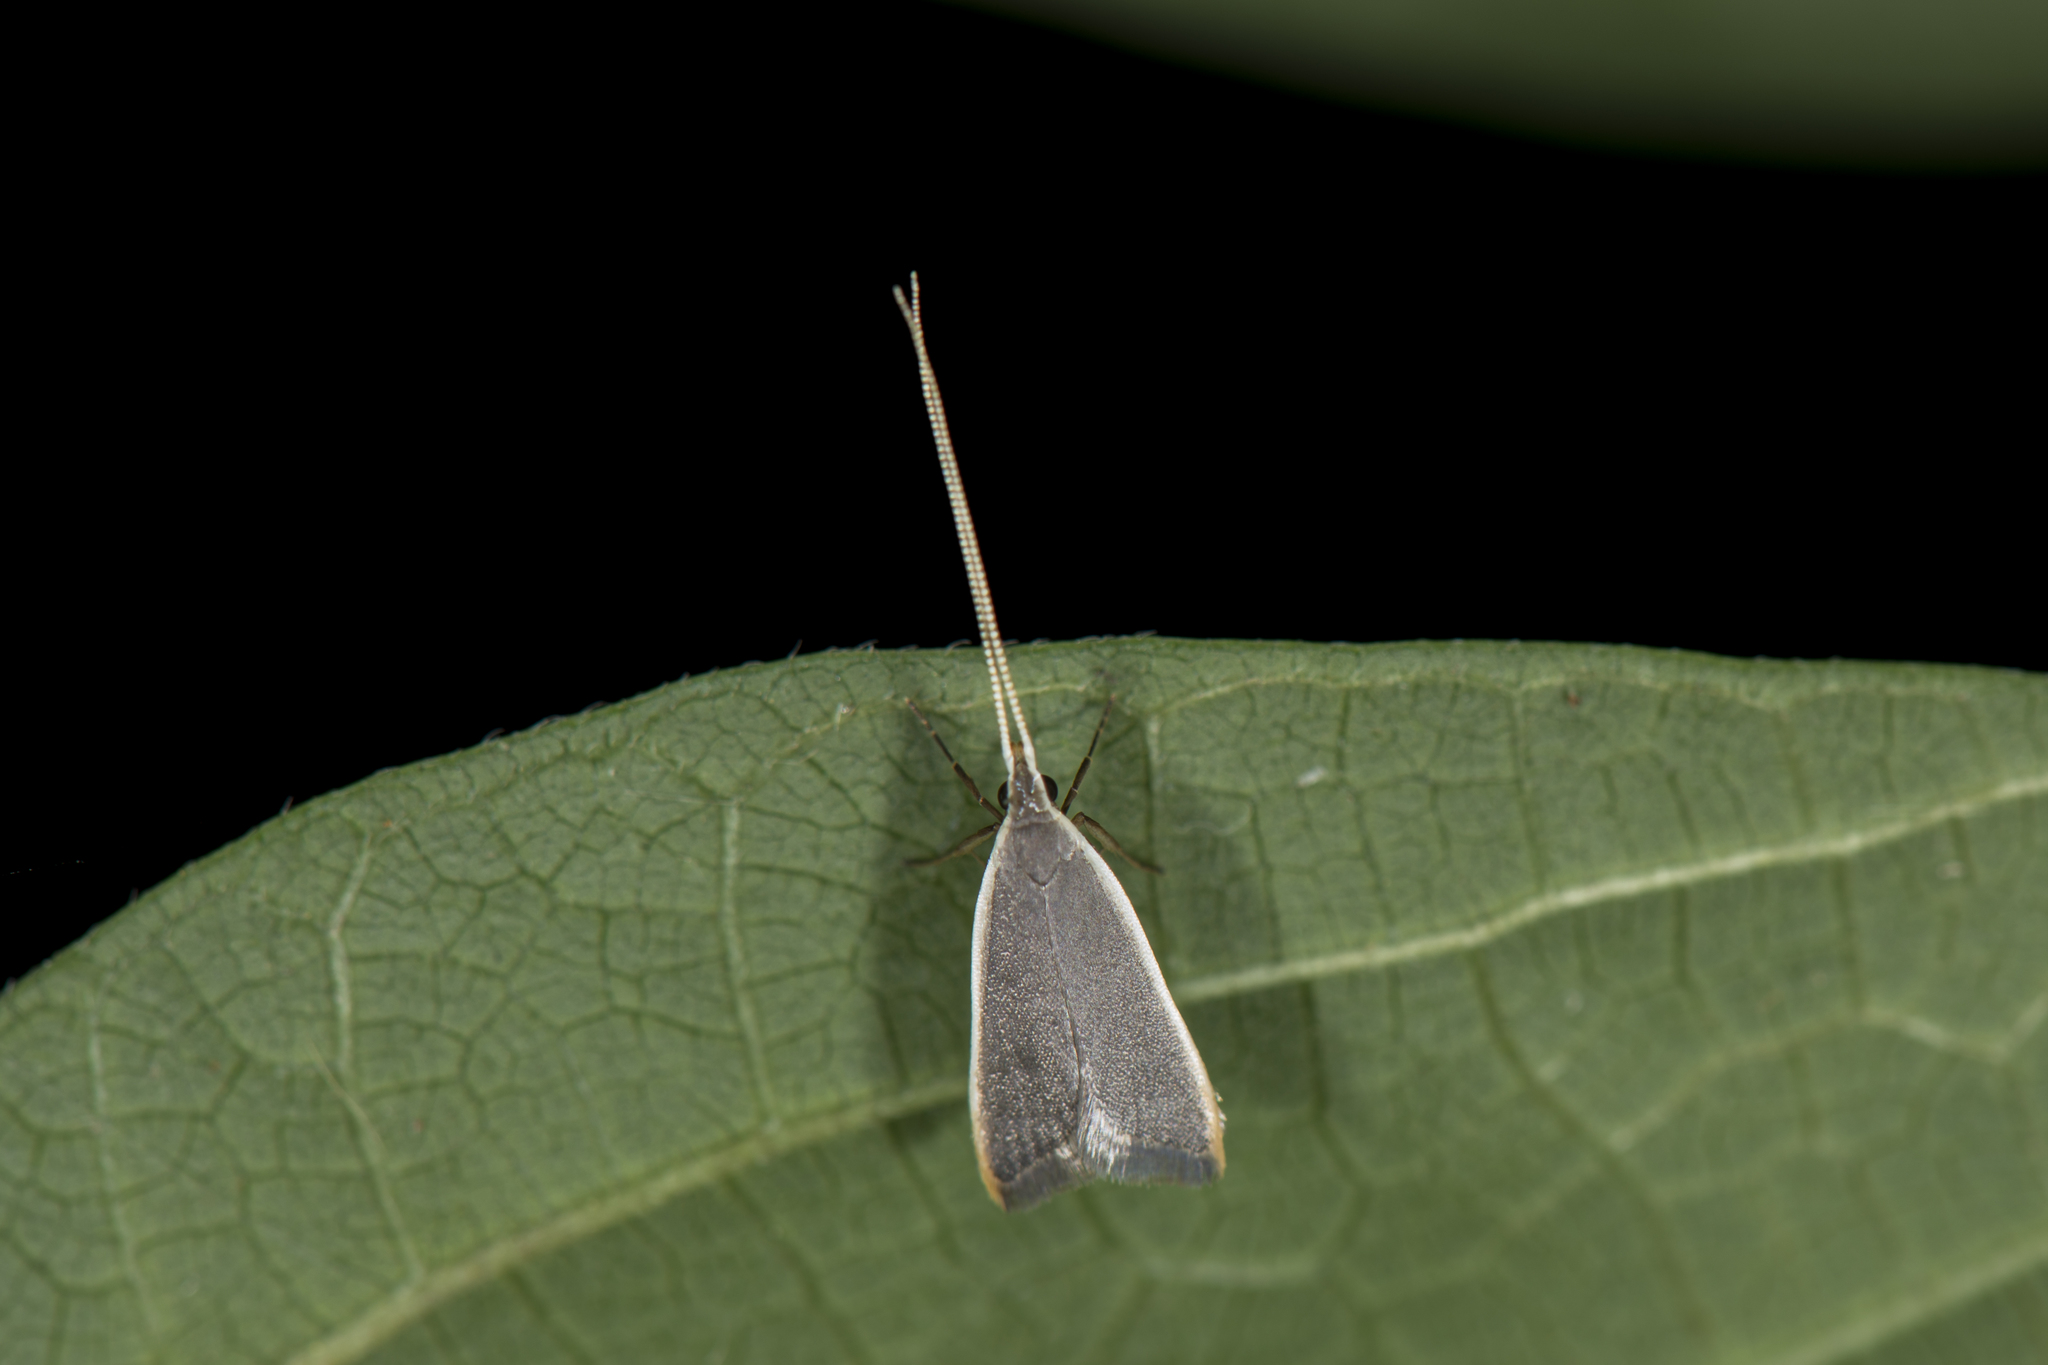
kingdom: Animalia
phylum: Arthropoda
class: Insecta
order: Lepidoptera
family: Lecithoceridae
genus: Homaloxestis
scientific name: Homaloxestis myeloxesta
